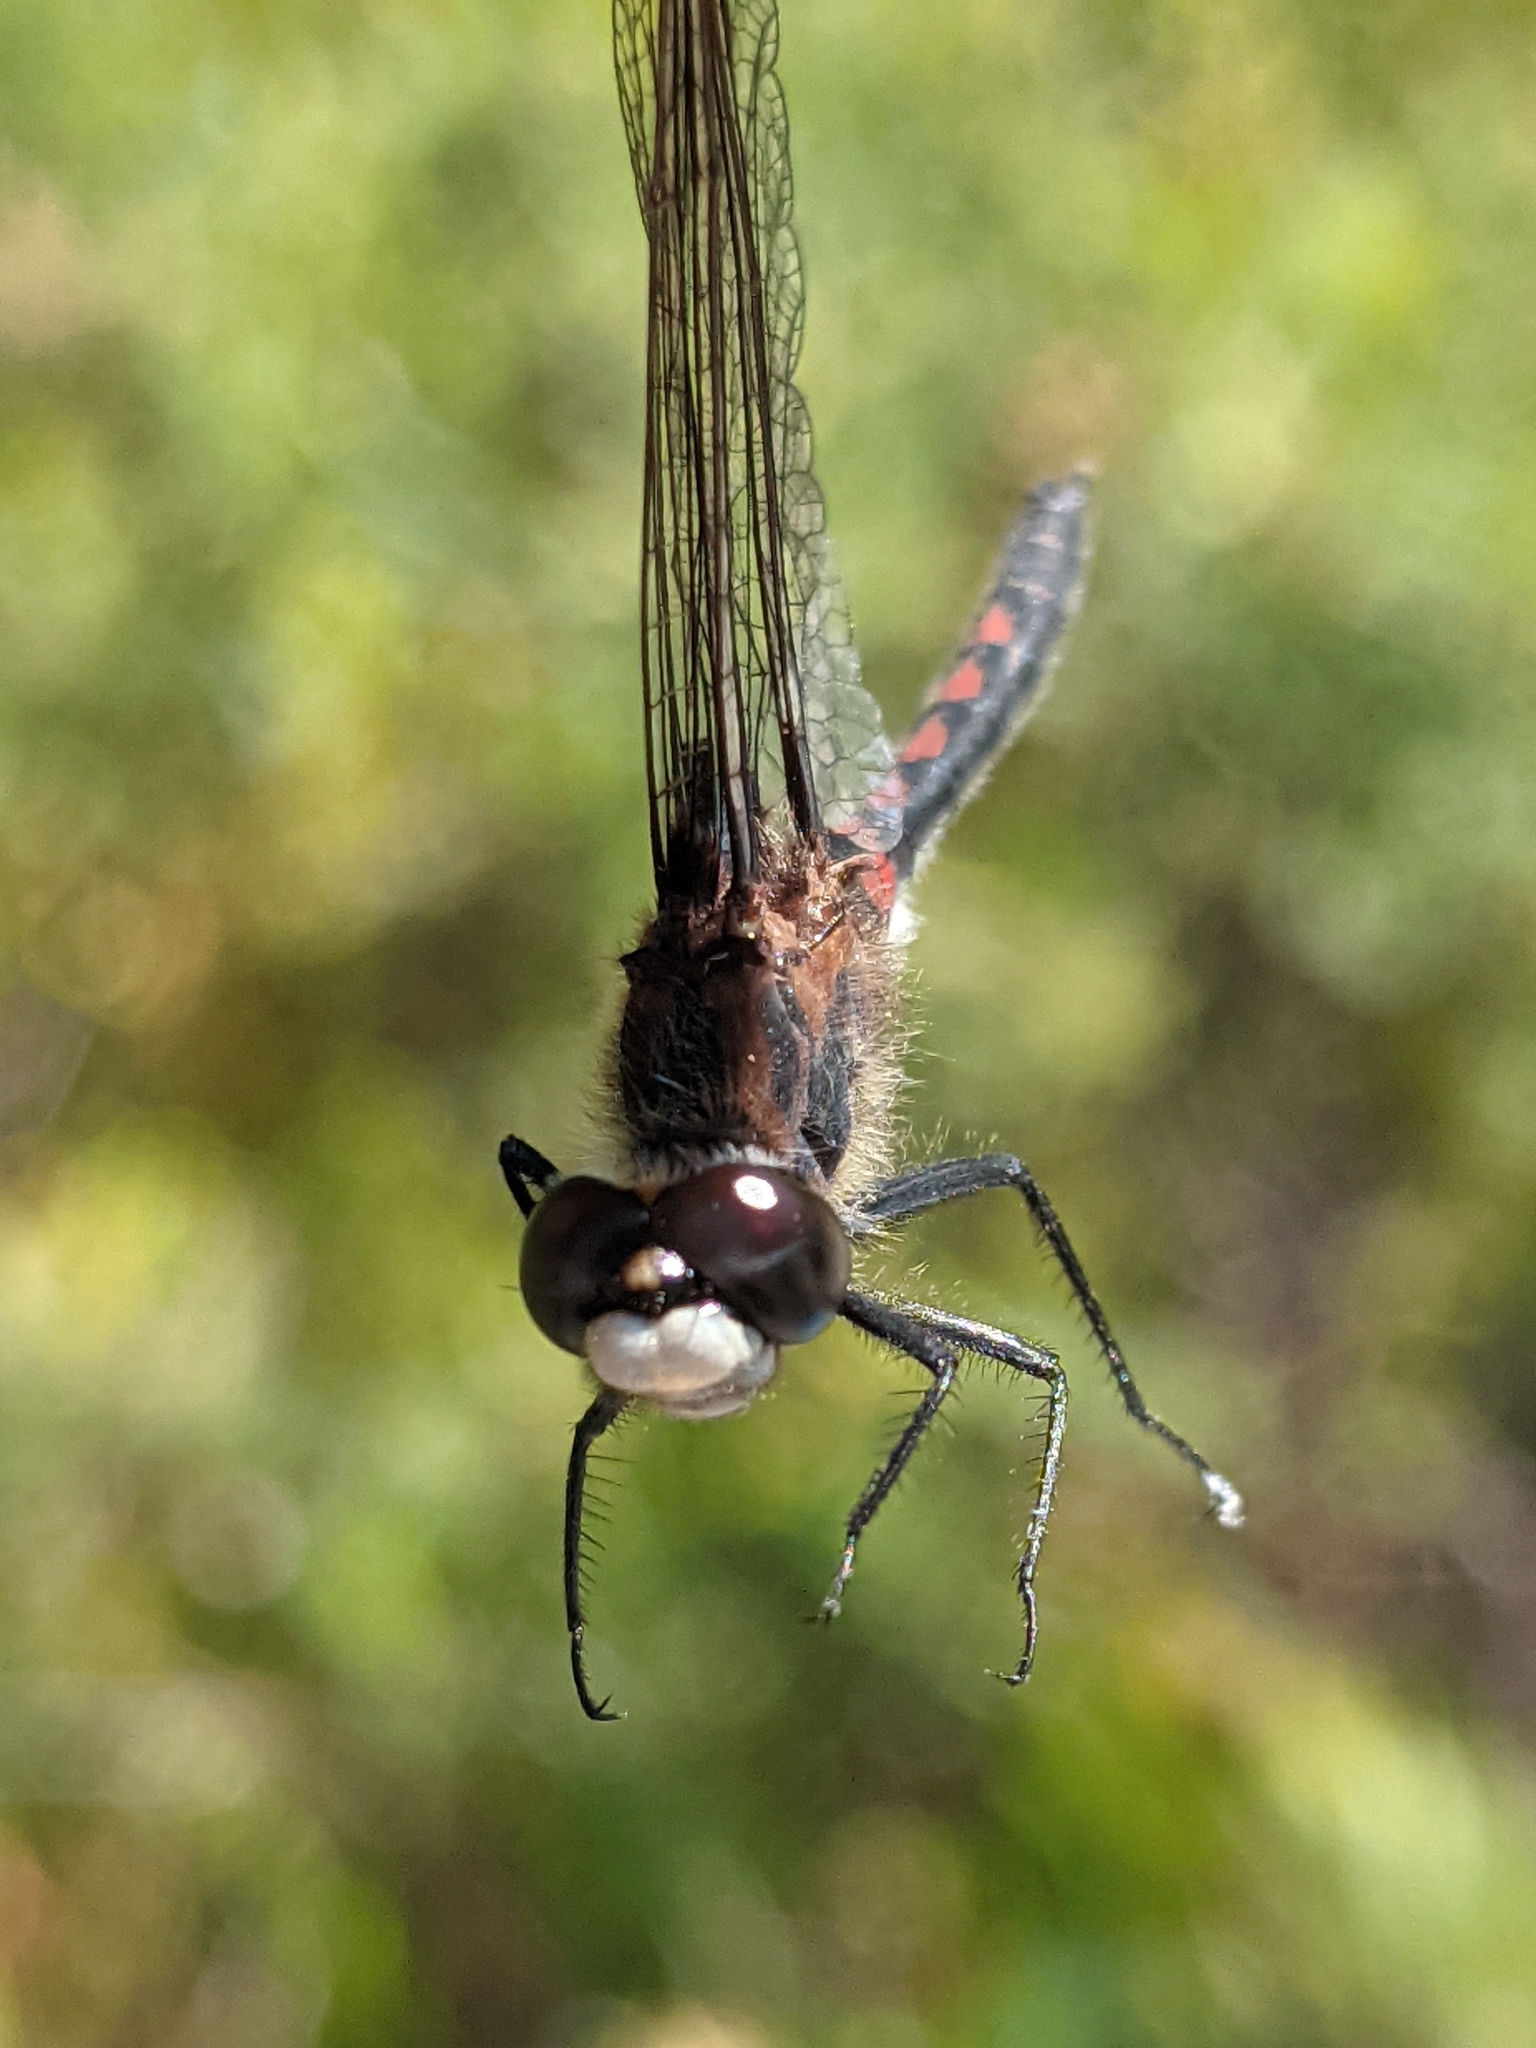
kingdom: Animalia
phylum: Arthropoda
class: Insecta
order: Odonata
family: Libellulidae
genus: Leucorrhinia
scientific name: Leucorrhinia hudsonica
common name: Hudsonian whiteface
